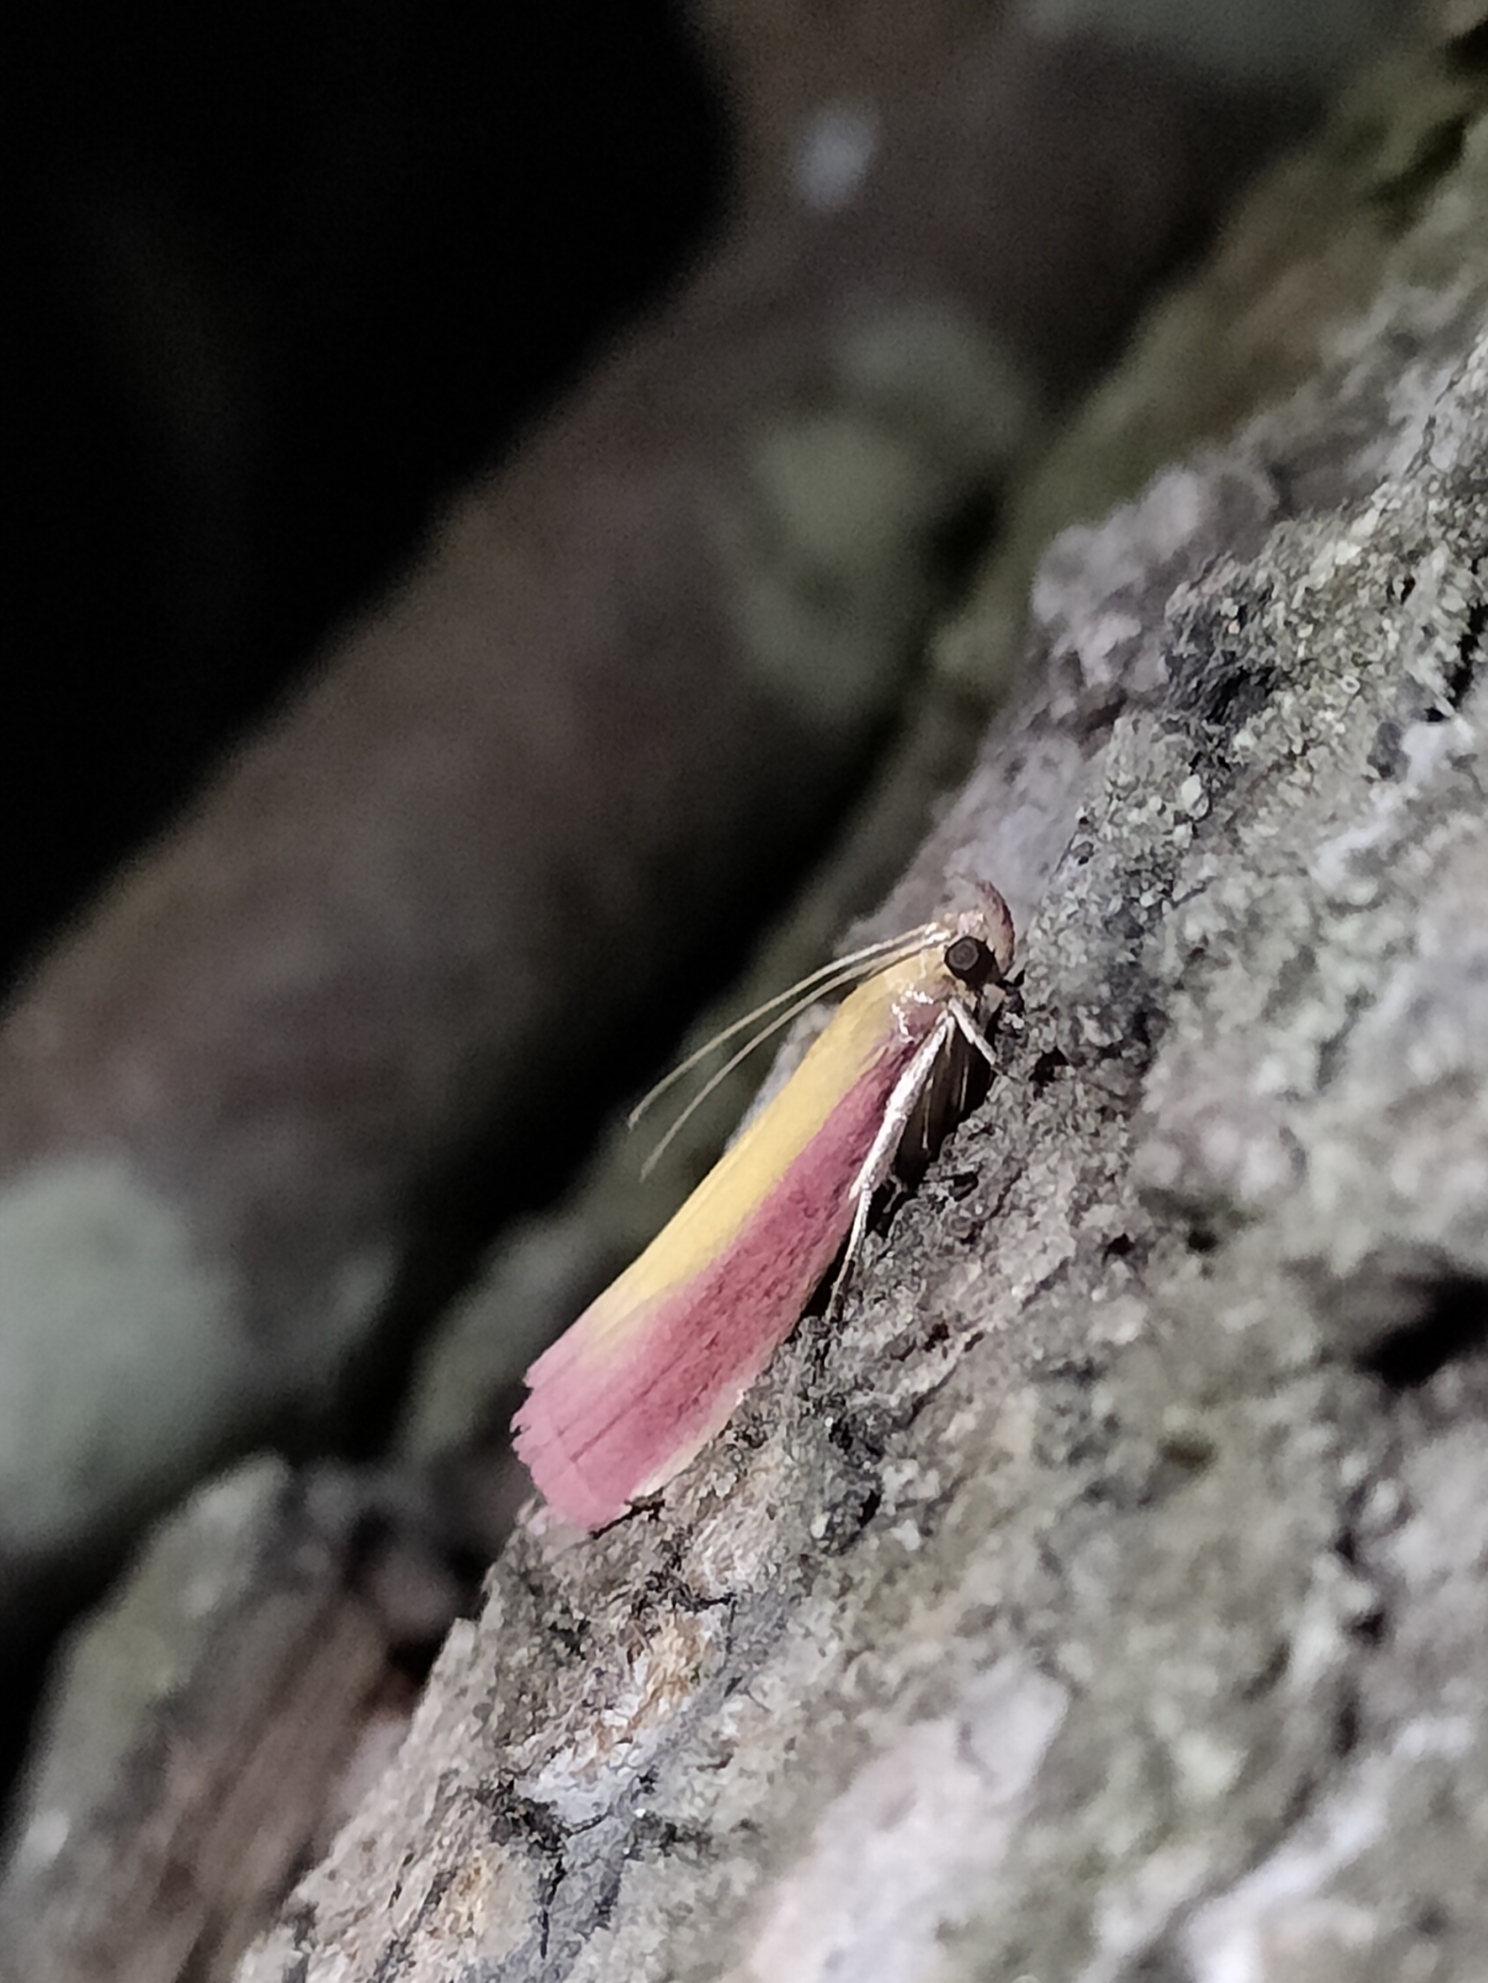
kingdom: Animalia
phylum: Arthropoda
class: Insecta
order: Lepidoptera
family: Pyralidae
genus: Oncocera
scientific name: Oncocera semirubella
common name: Rosy-striped knot-horn
